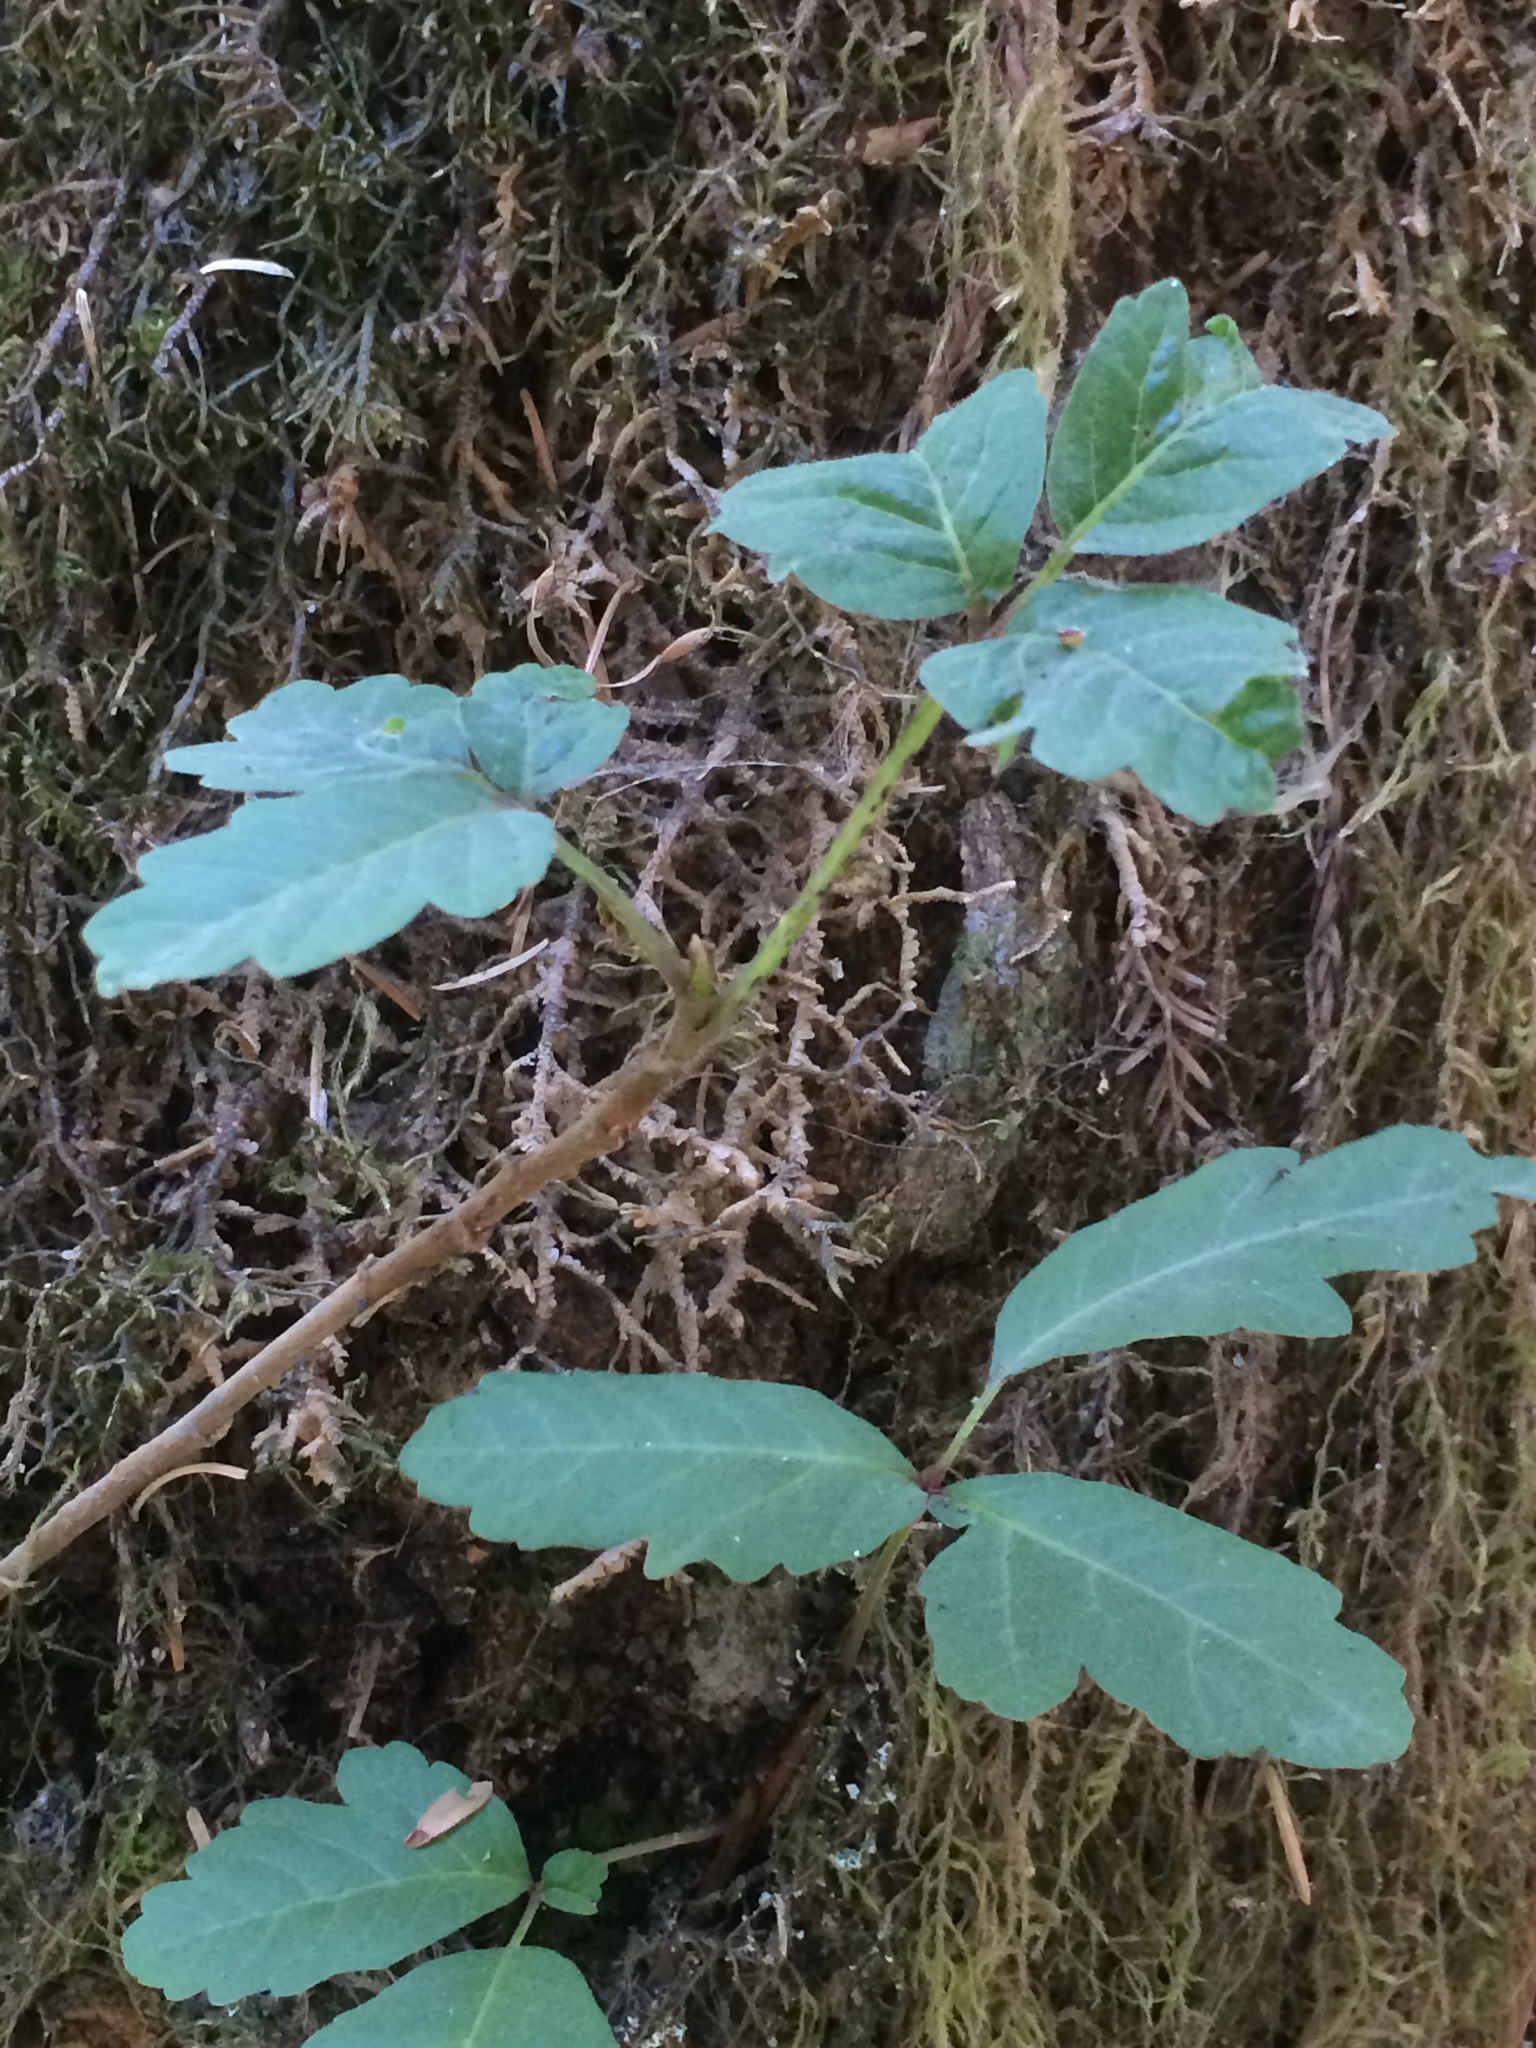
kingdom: Plantae
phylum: Tracheophyta
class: Magnoliopsida
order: Sapindales
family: Anacardiaceae
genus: Toxicodendron
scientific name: Toxicodendron diversilobum
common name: Pacific poison-oak
